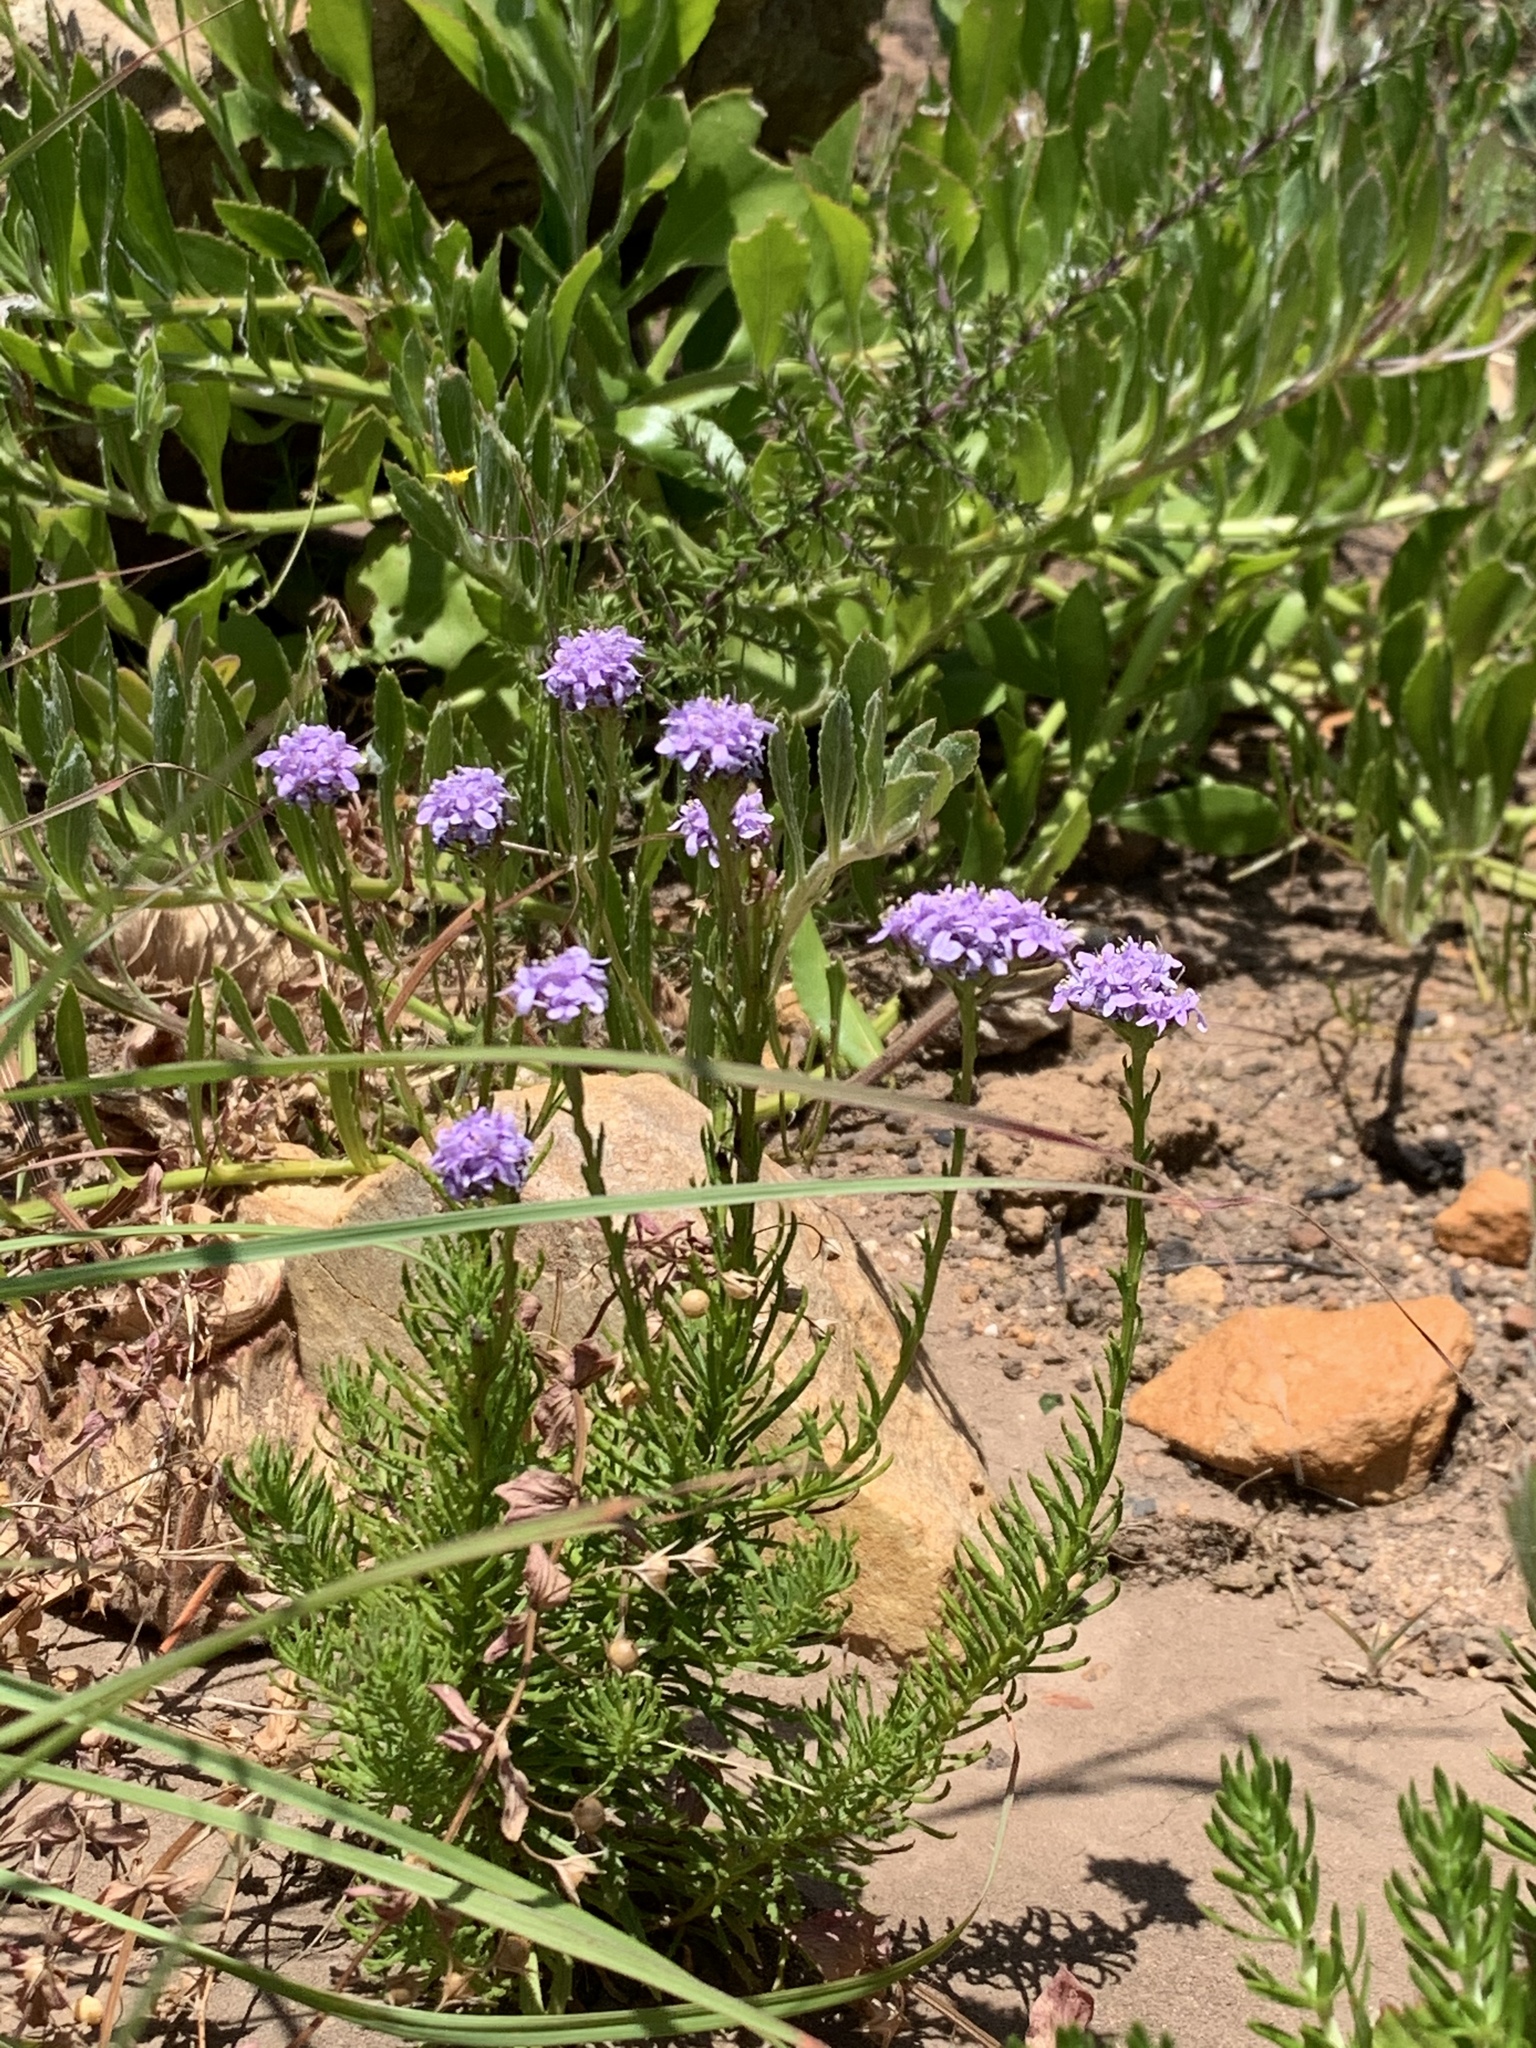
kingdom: Plantae
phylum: Tracheophyta
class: Magnoliopsida
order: Lamiales
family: Scrophulariaceae
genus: Pseudoselago
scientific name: Pseudoselago spuria
